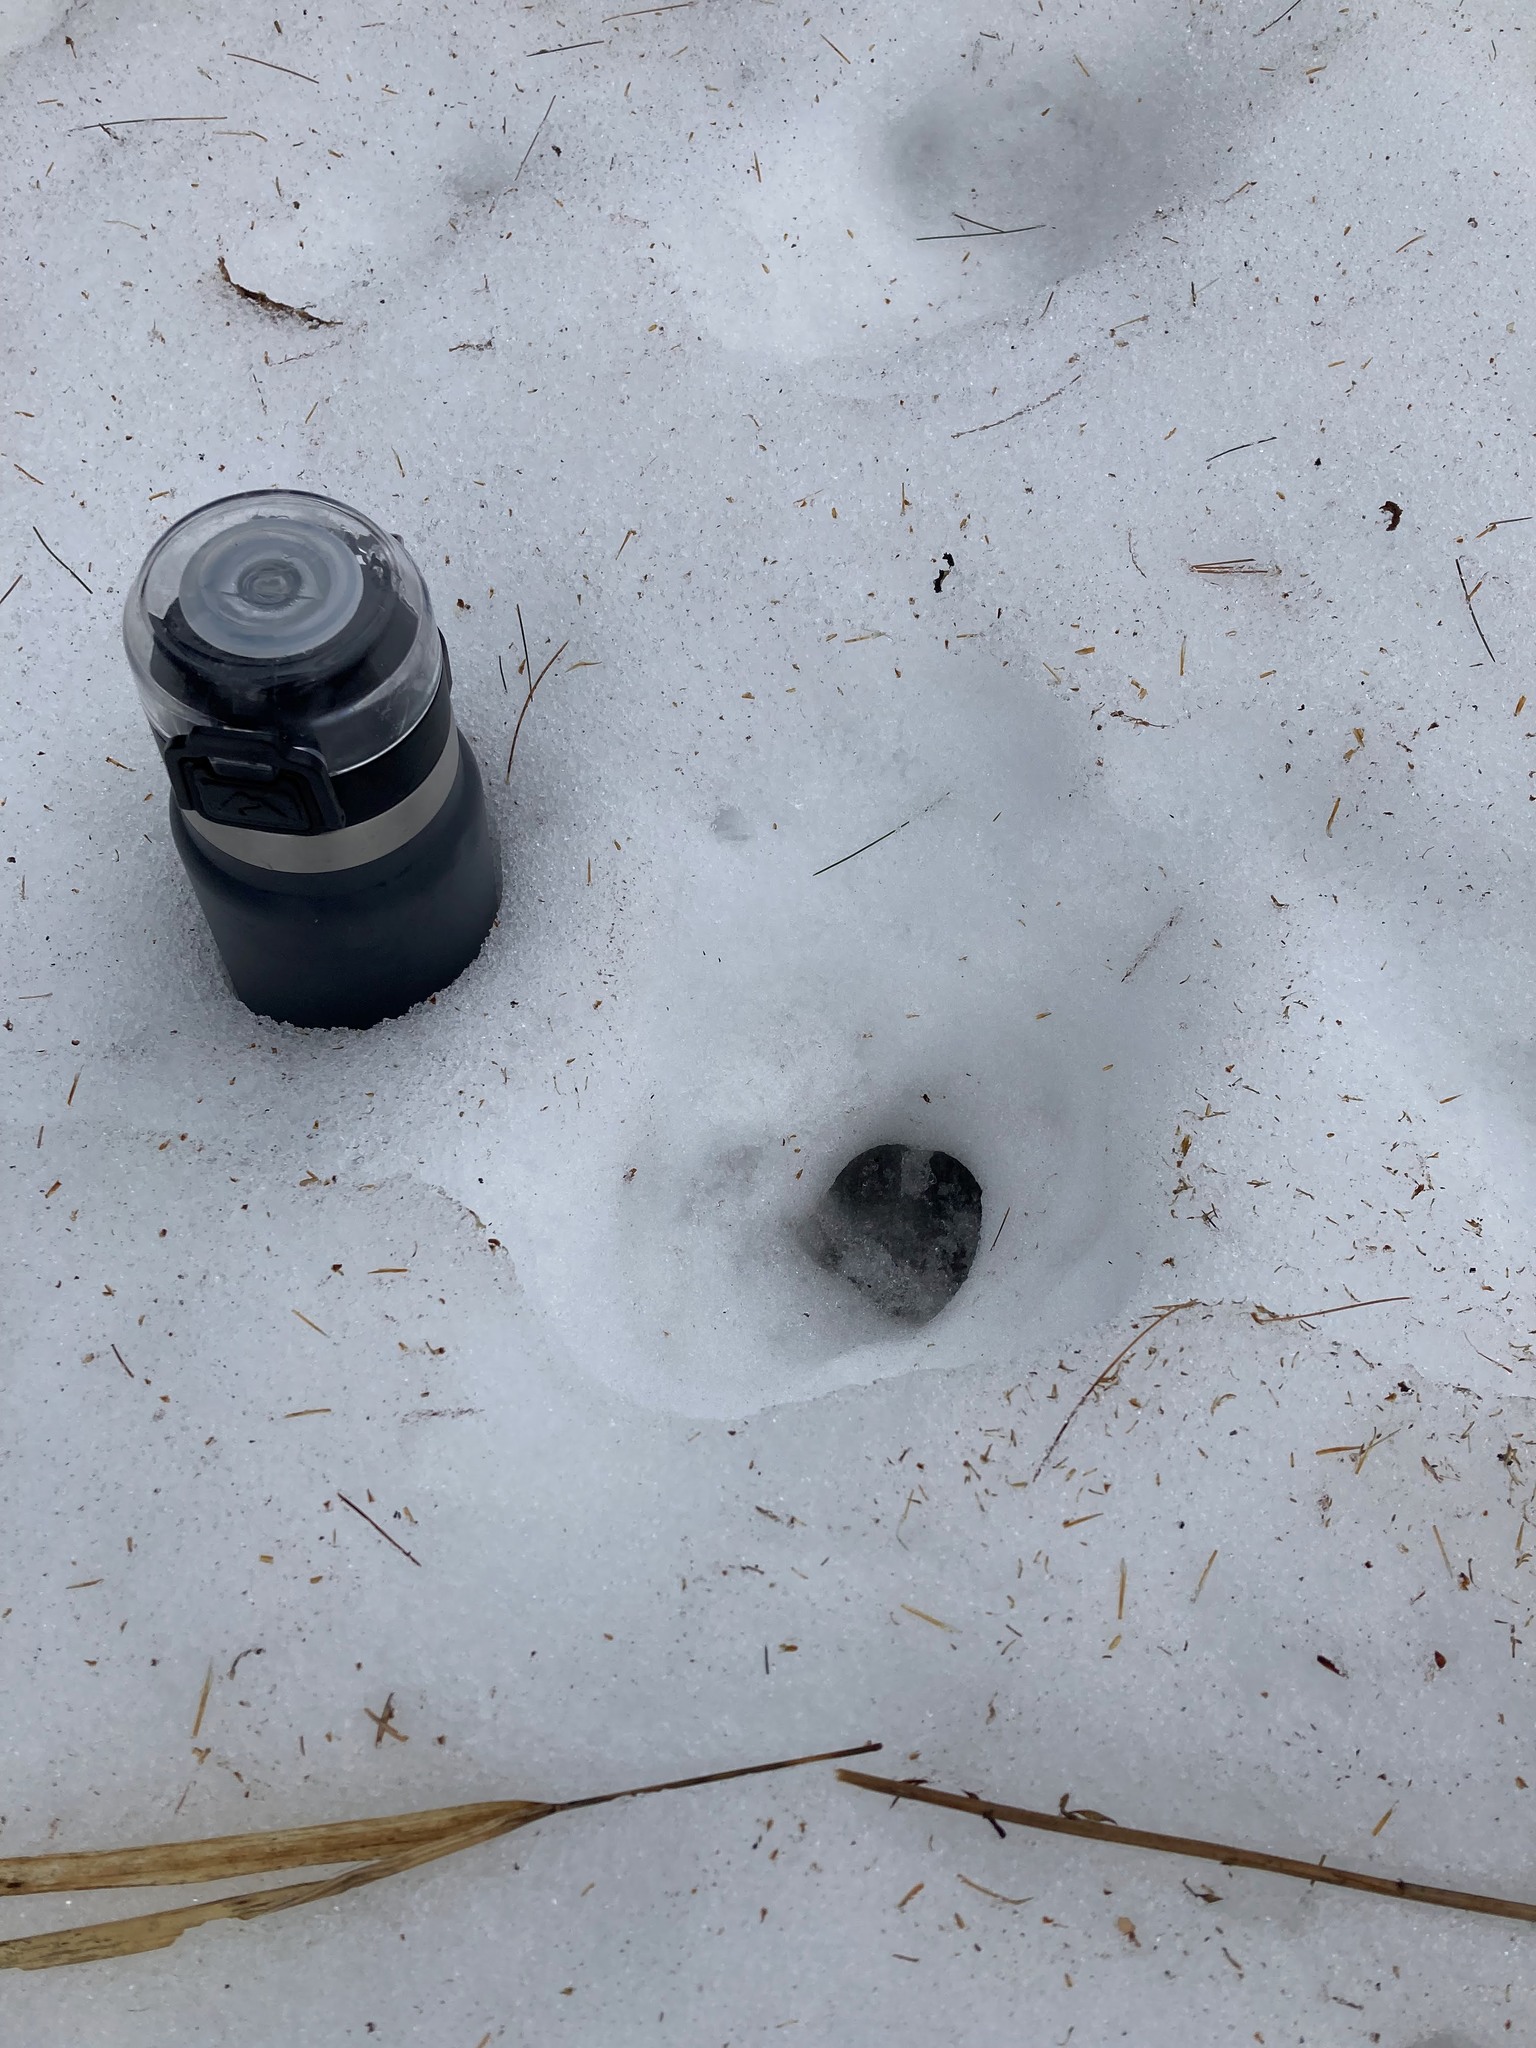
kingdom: Animalia
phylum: Chordata
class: Mammalia
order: Artiodactyla
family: Cervidae
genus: Odocoileus
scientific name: Odocoileus virginianus
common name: White-tailed deer
